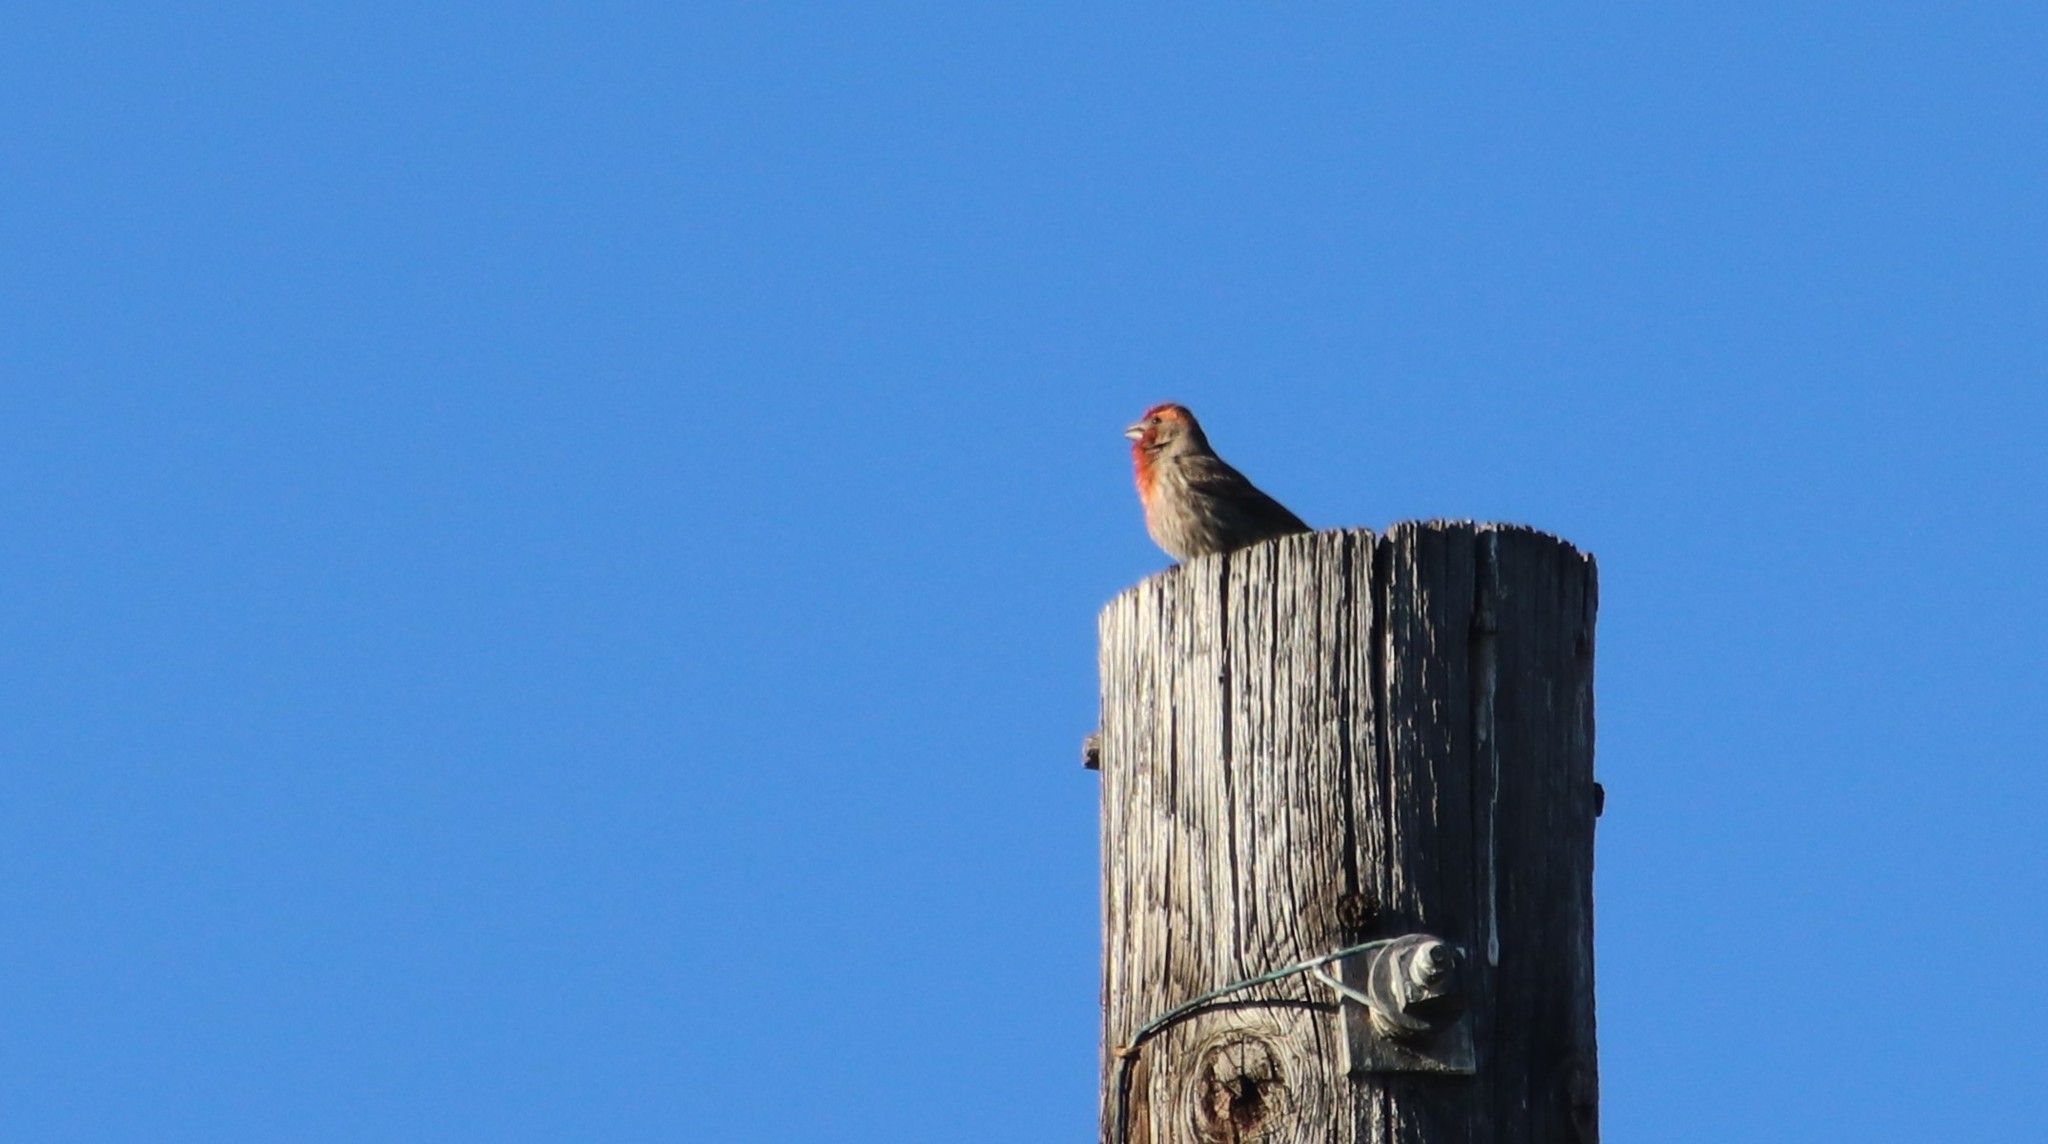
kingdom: Animalia
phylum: Chordata
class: Aves
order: Passeriformes
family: Fringillidae
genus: Haemorhous
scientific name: Haemorhous mexicanus
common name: House finch
